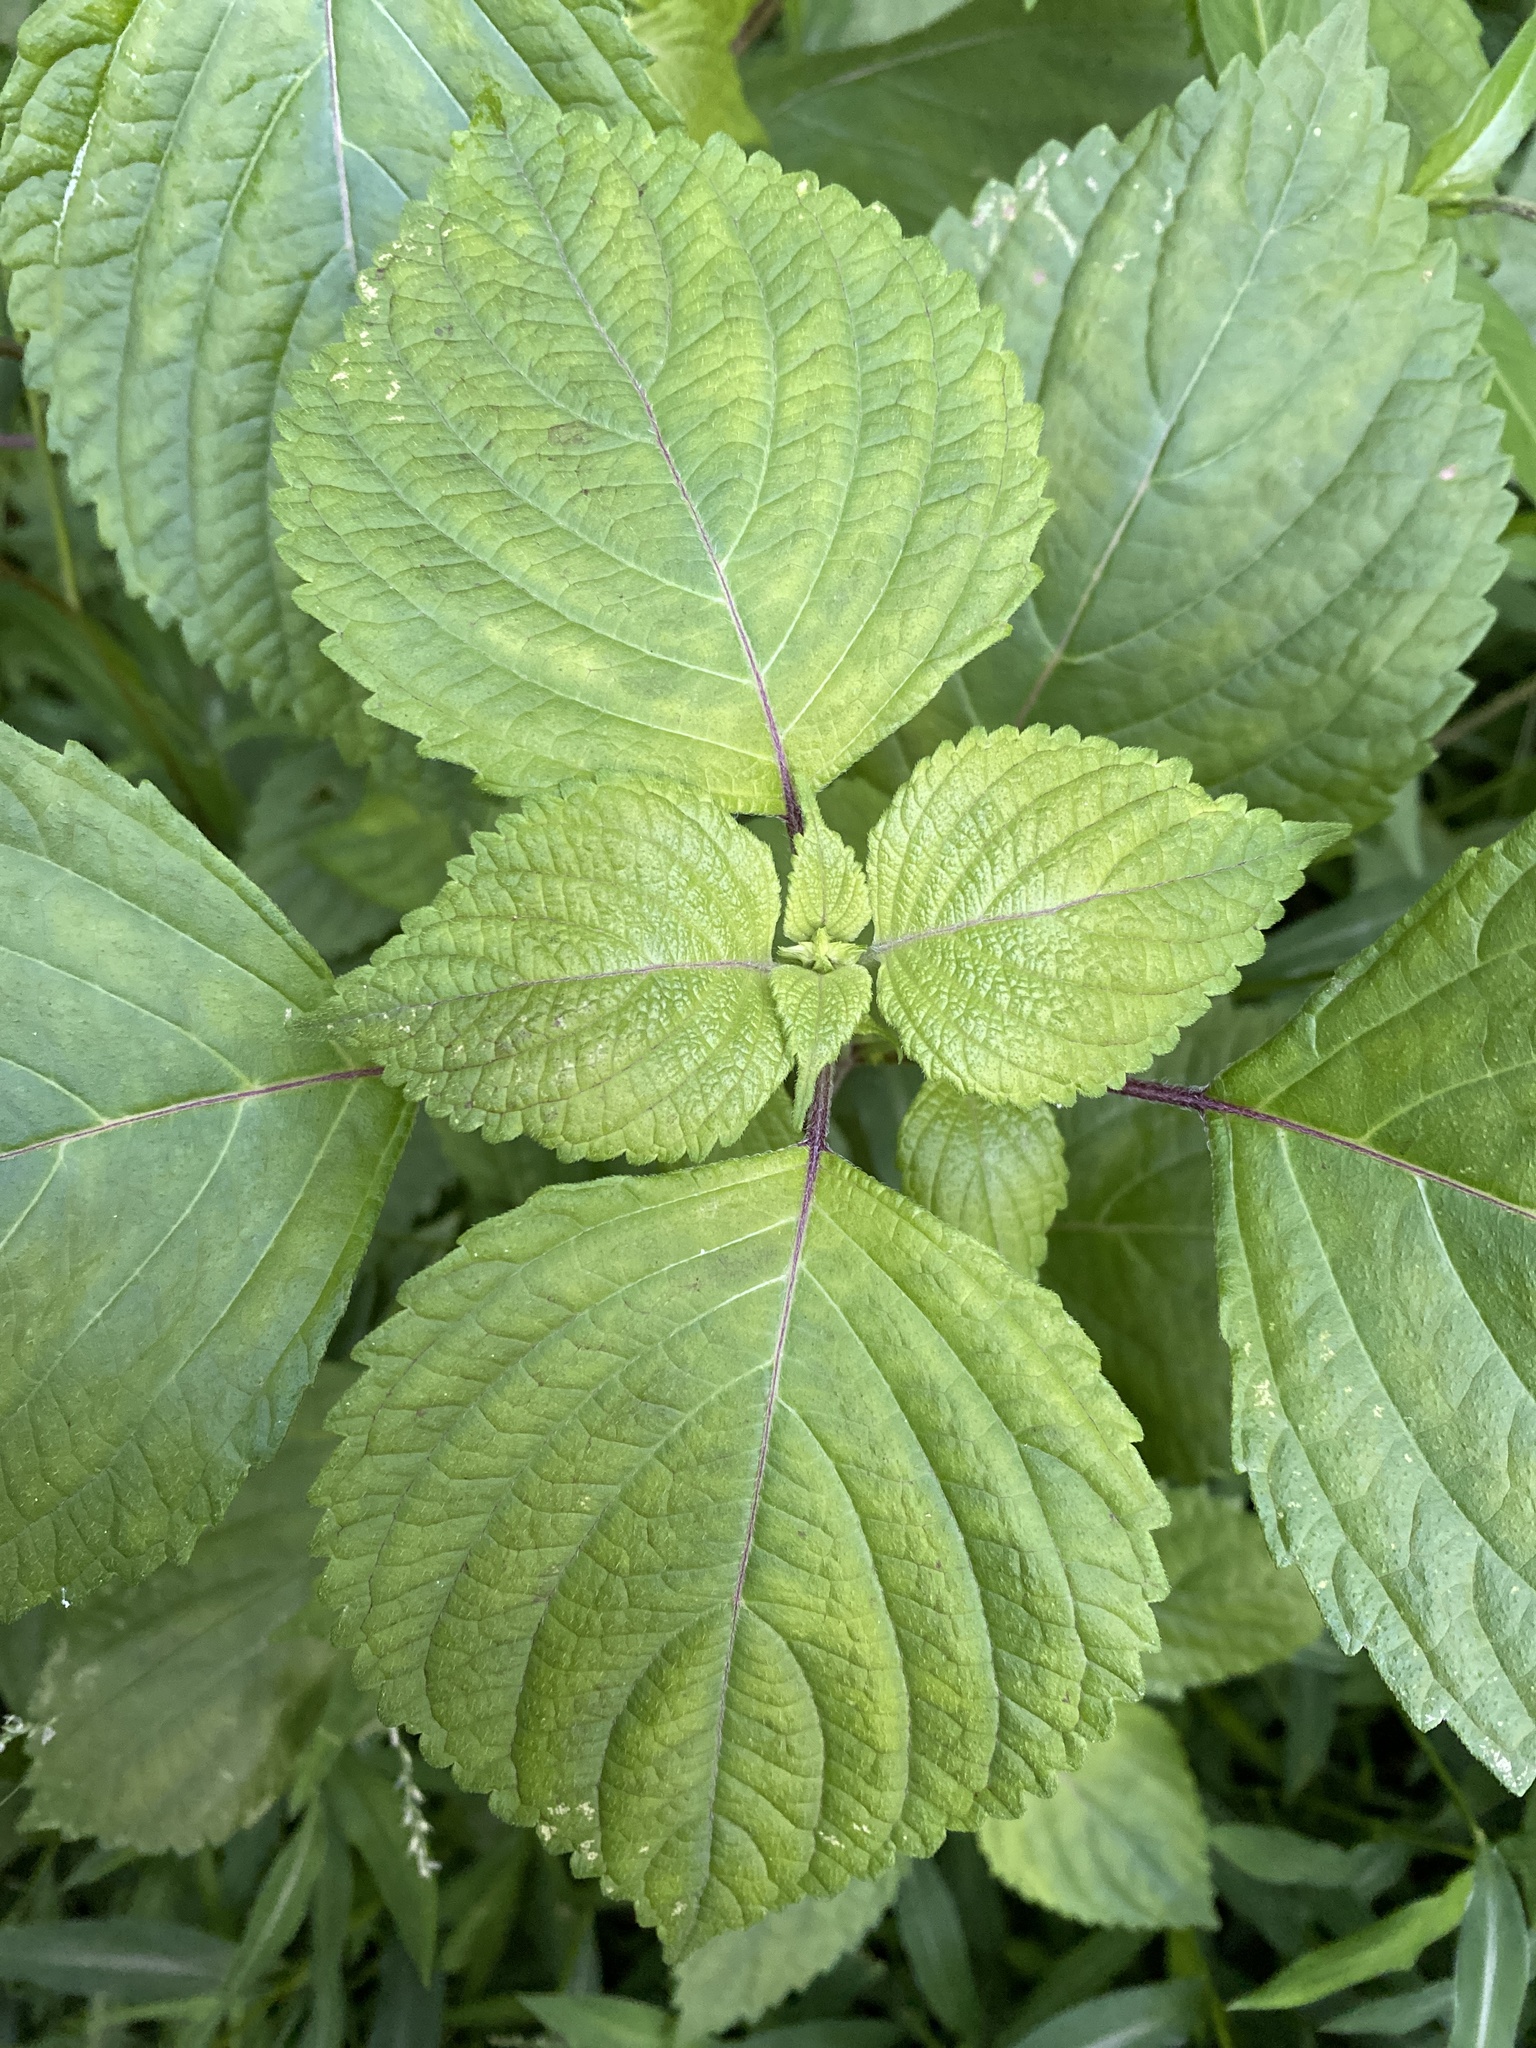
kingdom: Plantae
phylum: Tracheophyta
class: Magnoliopsida
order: Lamiales
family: Lamiaceae
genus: Perilla
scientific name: Perilla frutescens
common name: Perilla
